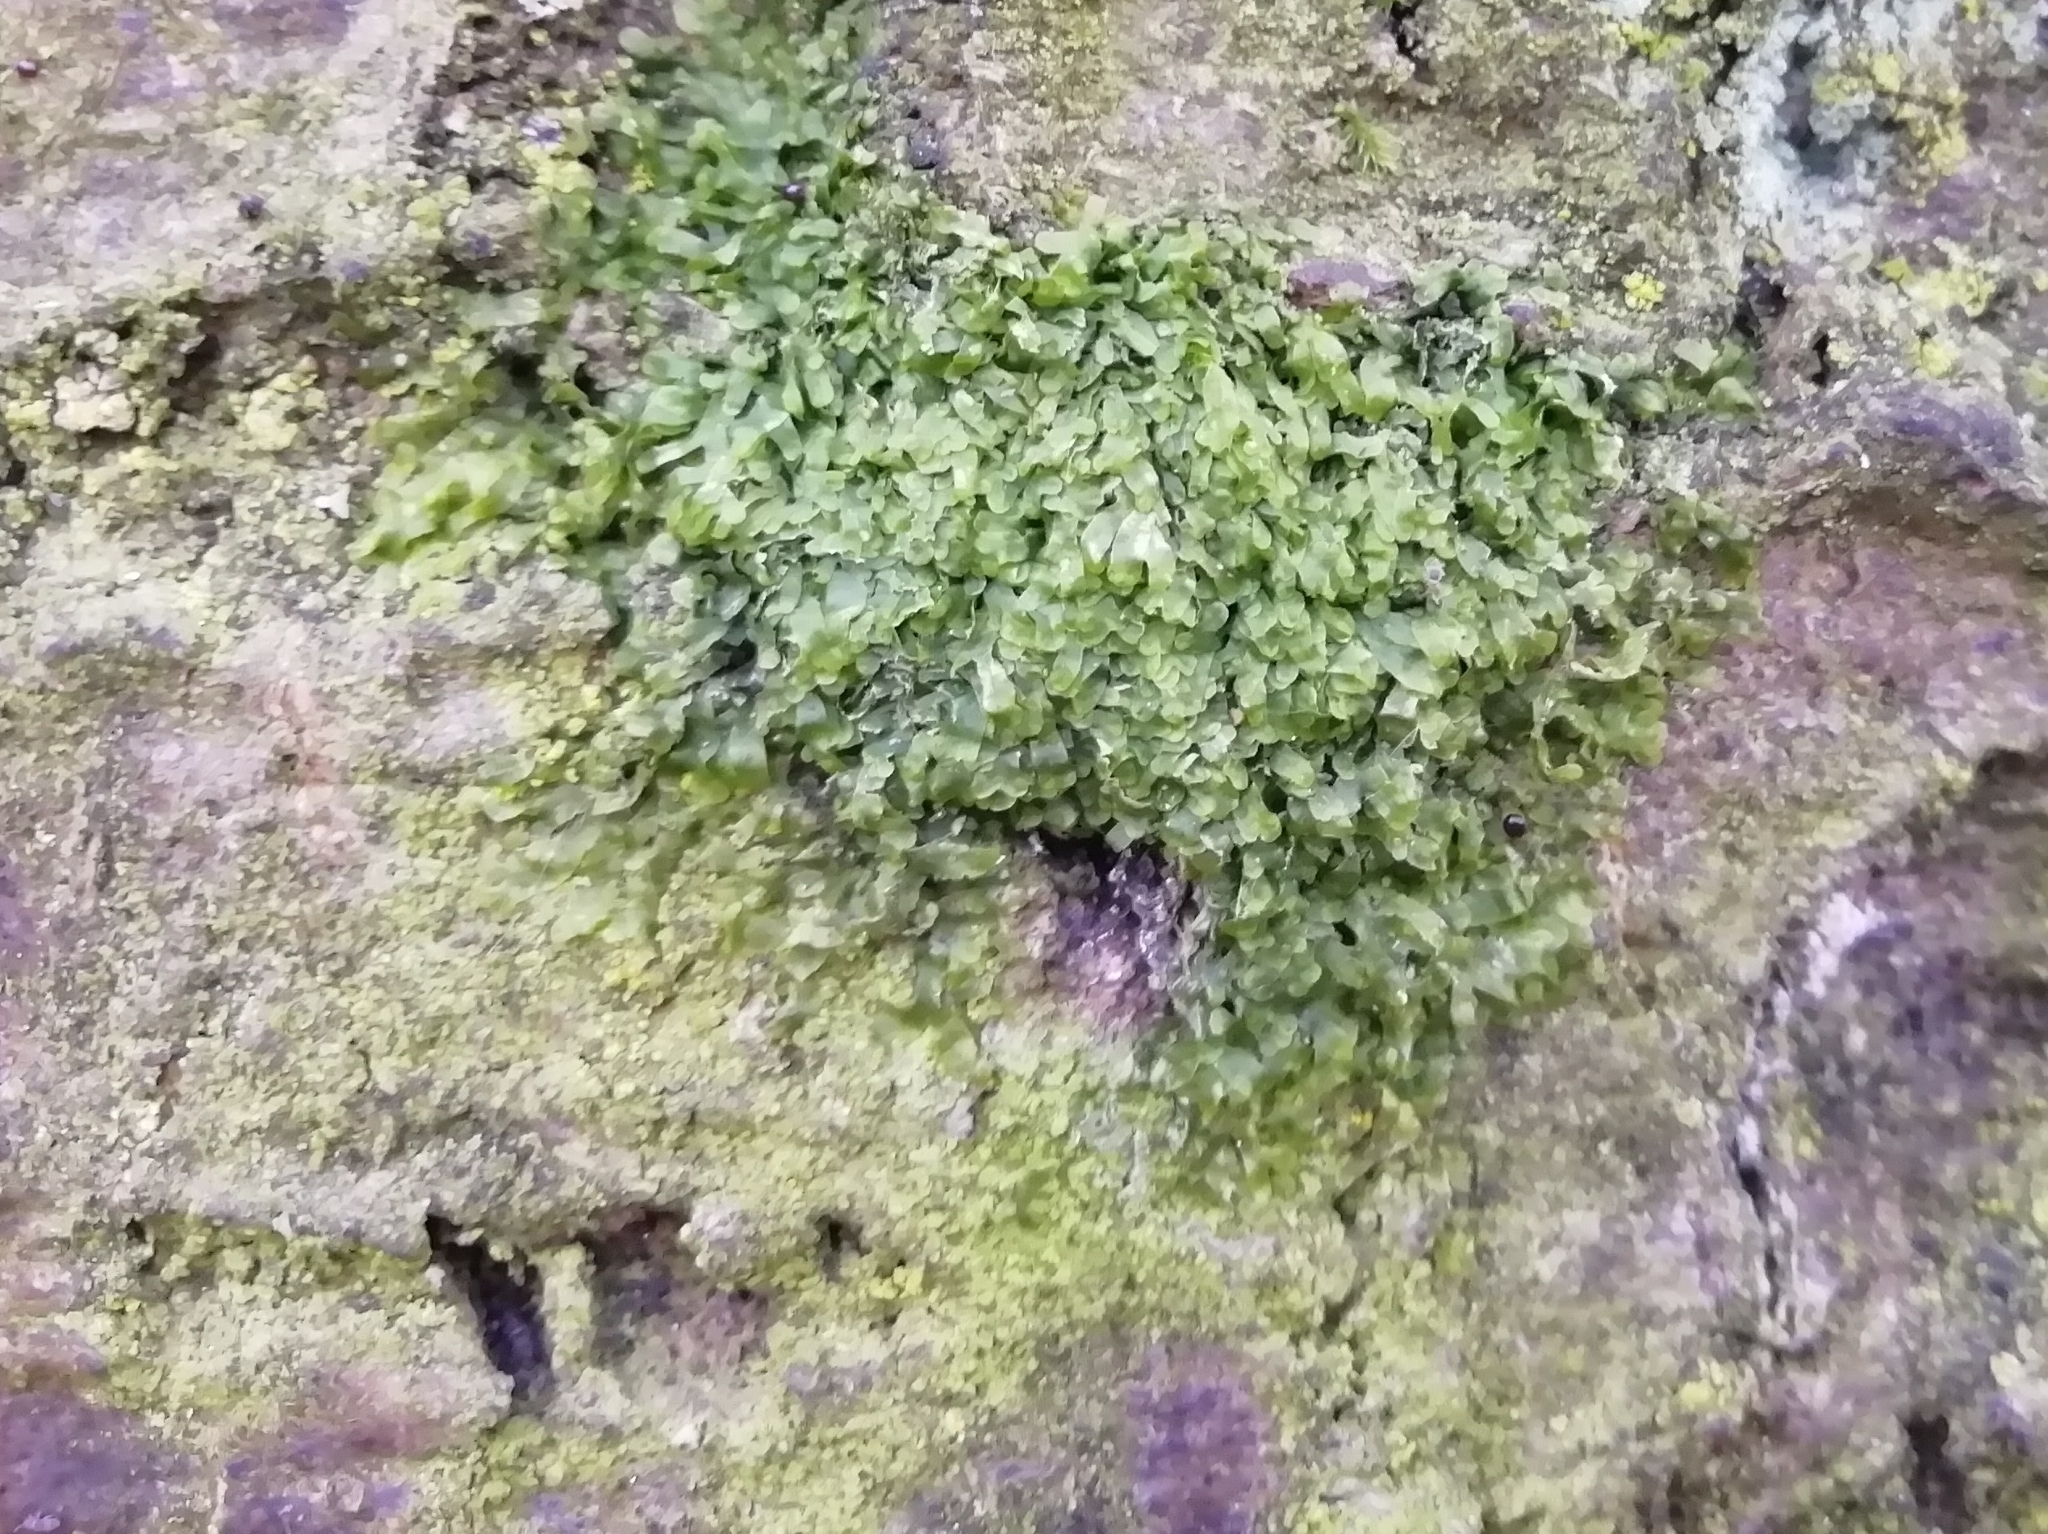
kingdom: Plantae
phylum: Marchantiophyta
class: Jungermanniopsida
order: Metzgeriales
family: Metzgeriaceae
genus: Metzgeria
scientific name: Metzgeria furcata
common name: Forked veilwort
